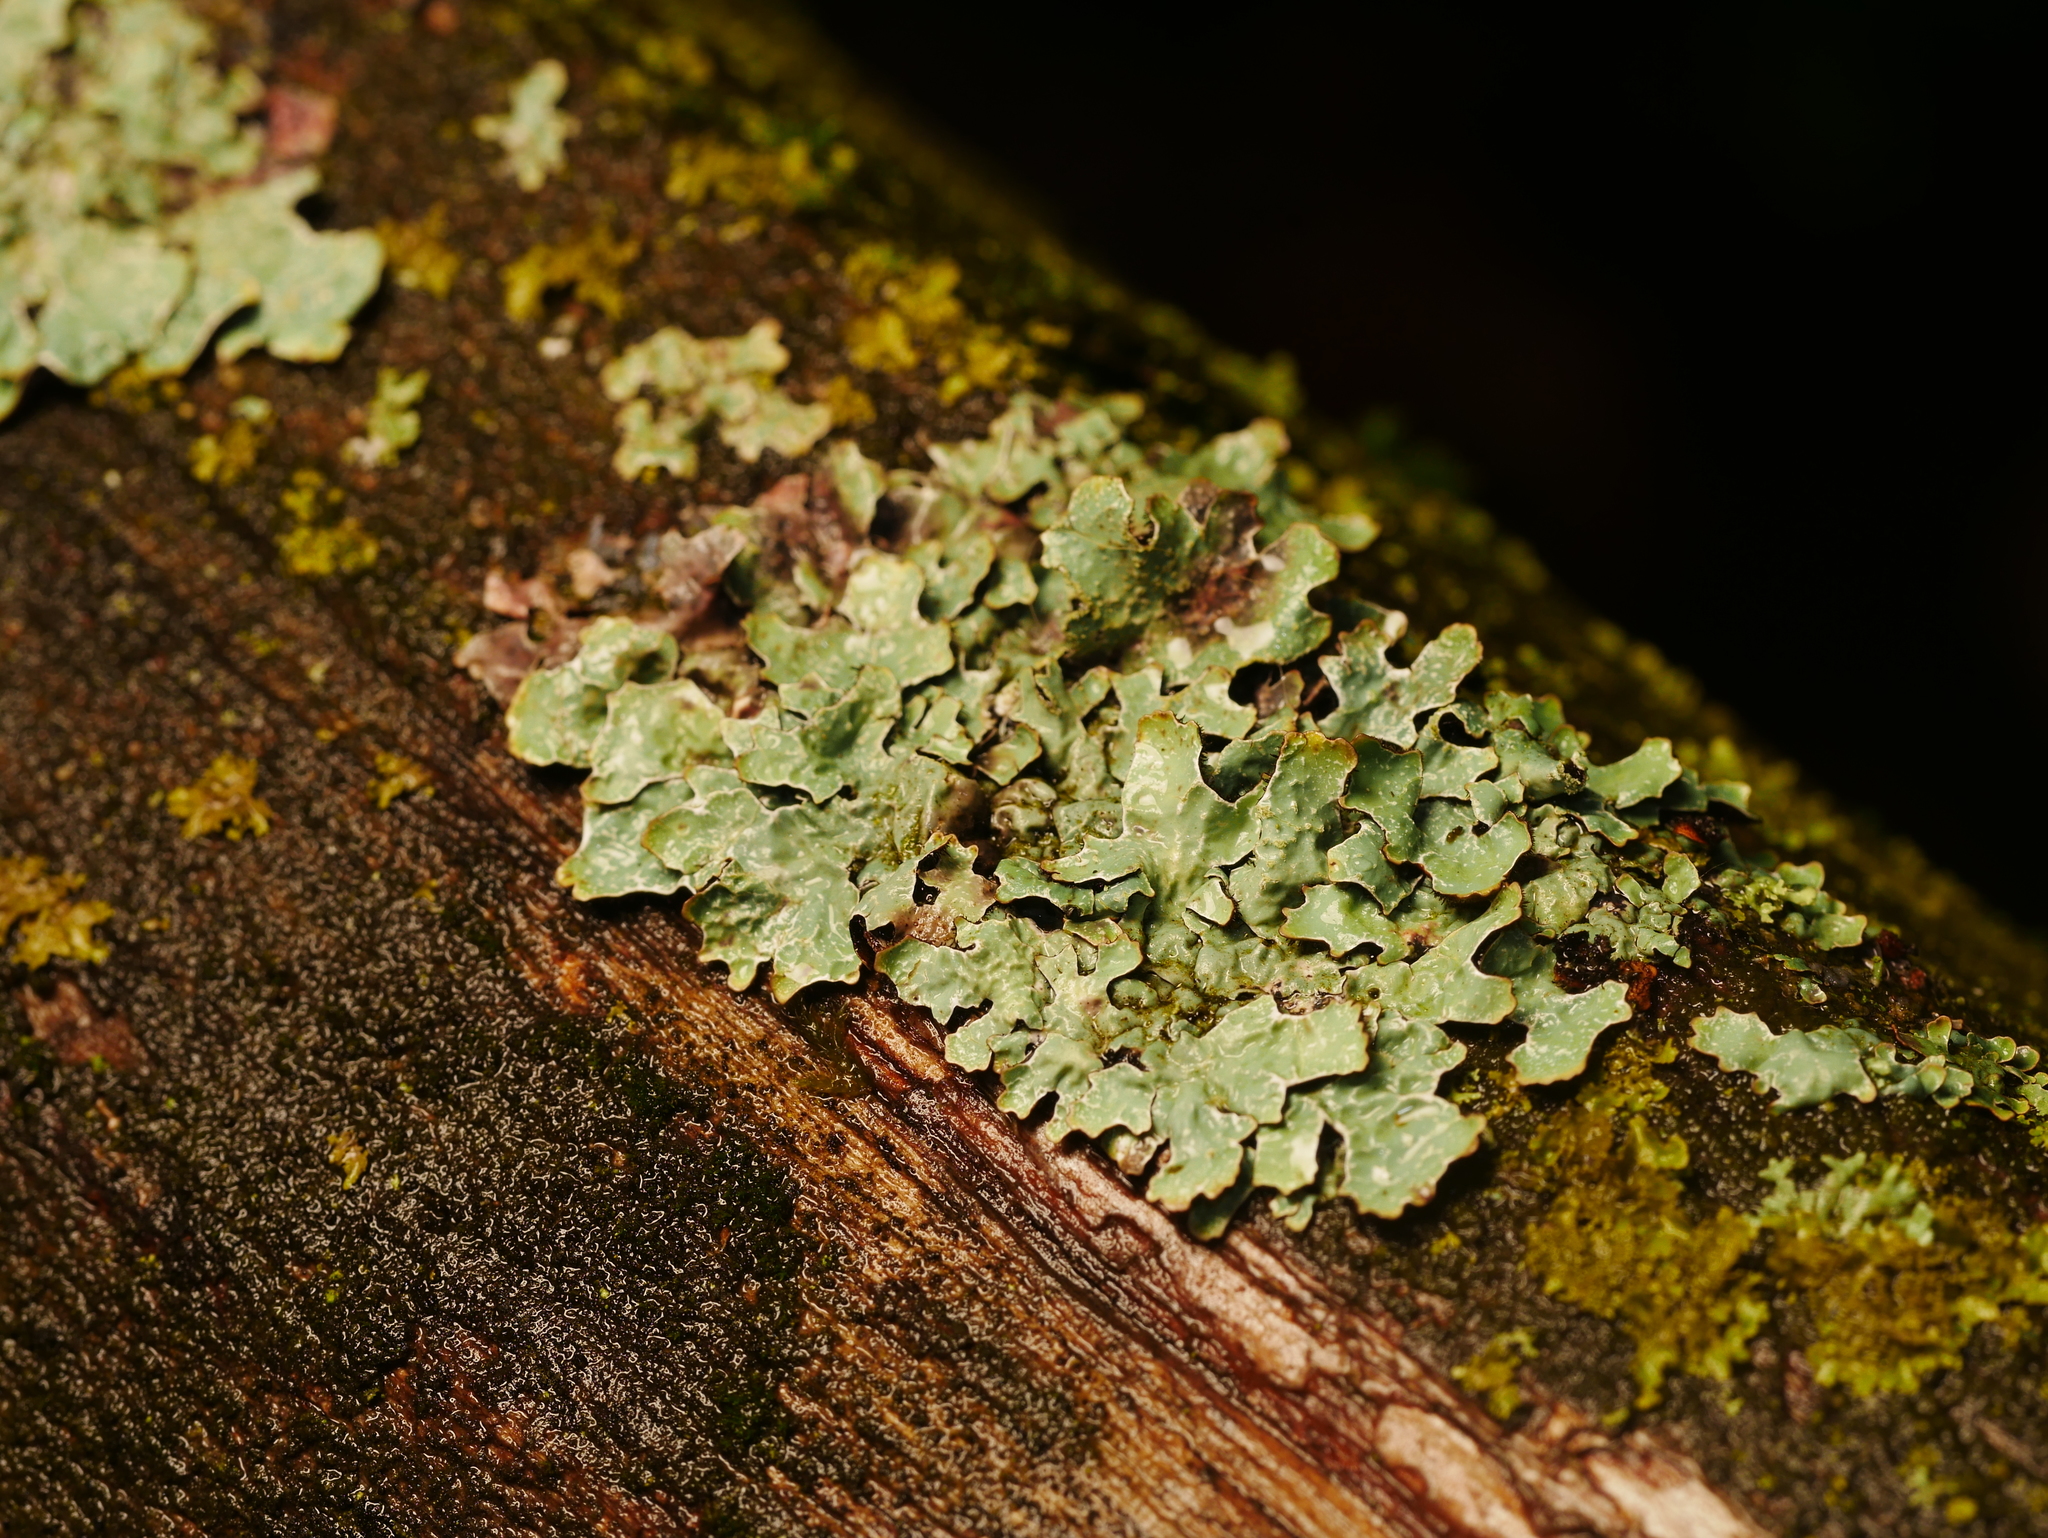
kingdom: Fungi
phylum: Ascomycota
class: Lecanoromycetes
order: Lecanorales
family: Parmeliaceae
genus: Parmelia
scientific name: Parmelia sulcata
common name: Netted shield lichen
